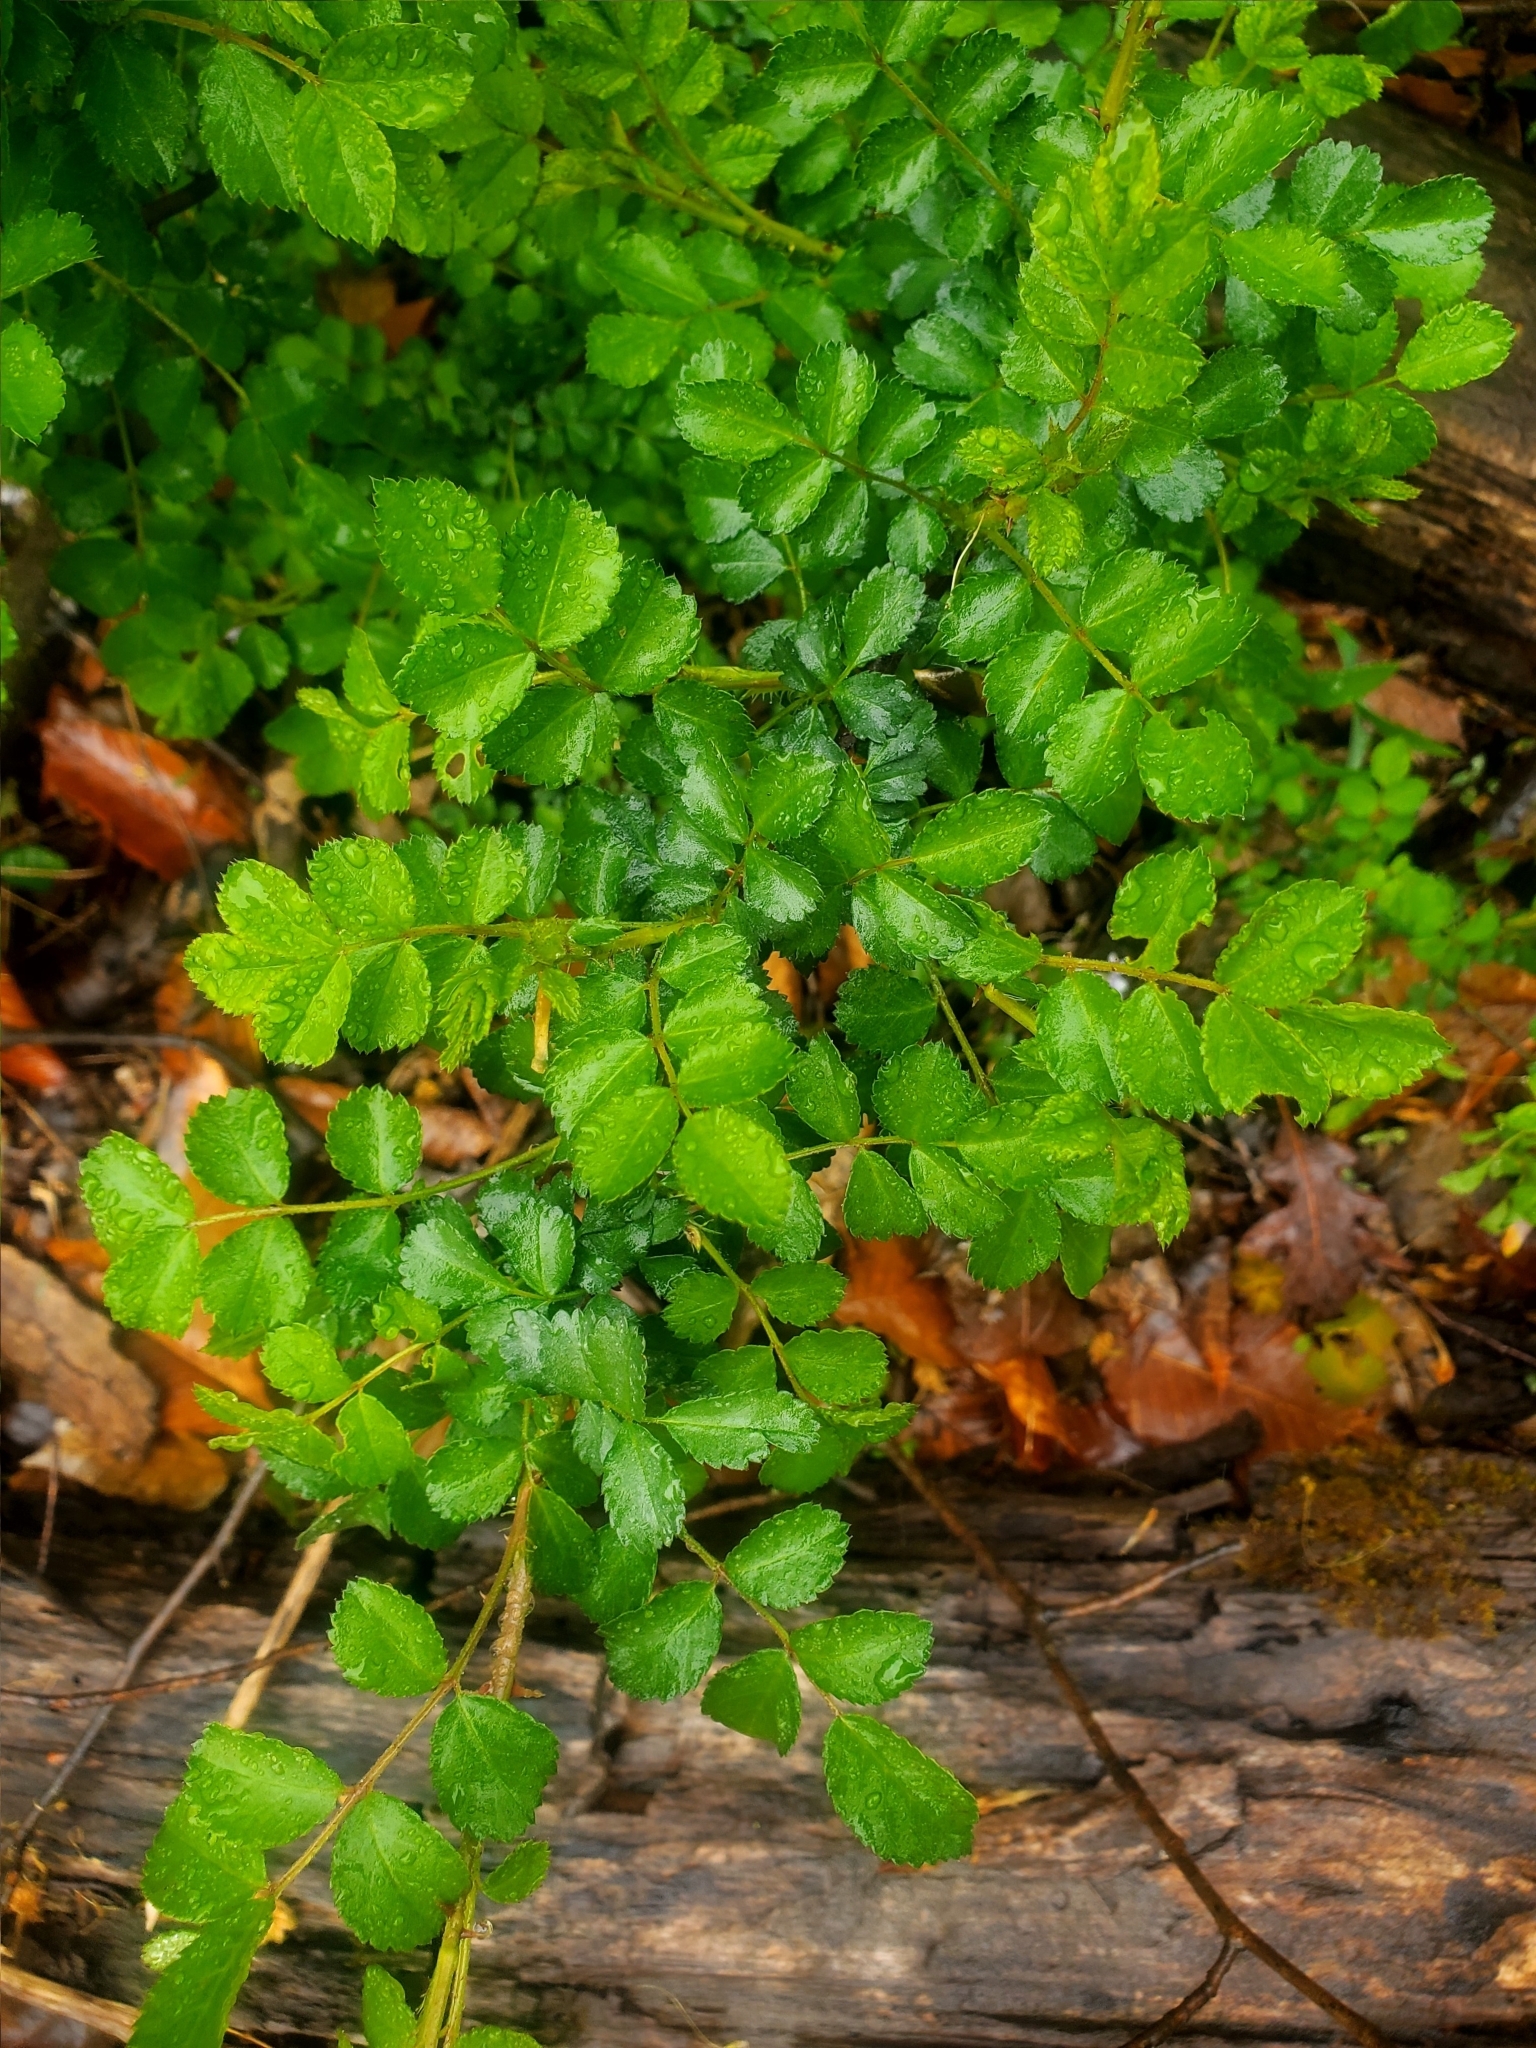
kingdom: Plantae
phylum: Tracheophyta
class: Magnoliopsida
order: Rosales
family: Rosaceae
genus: Rosa
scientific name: Rosa multiflora
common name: Multiflora rose
